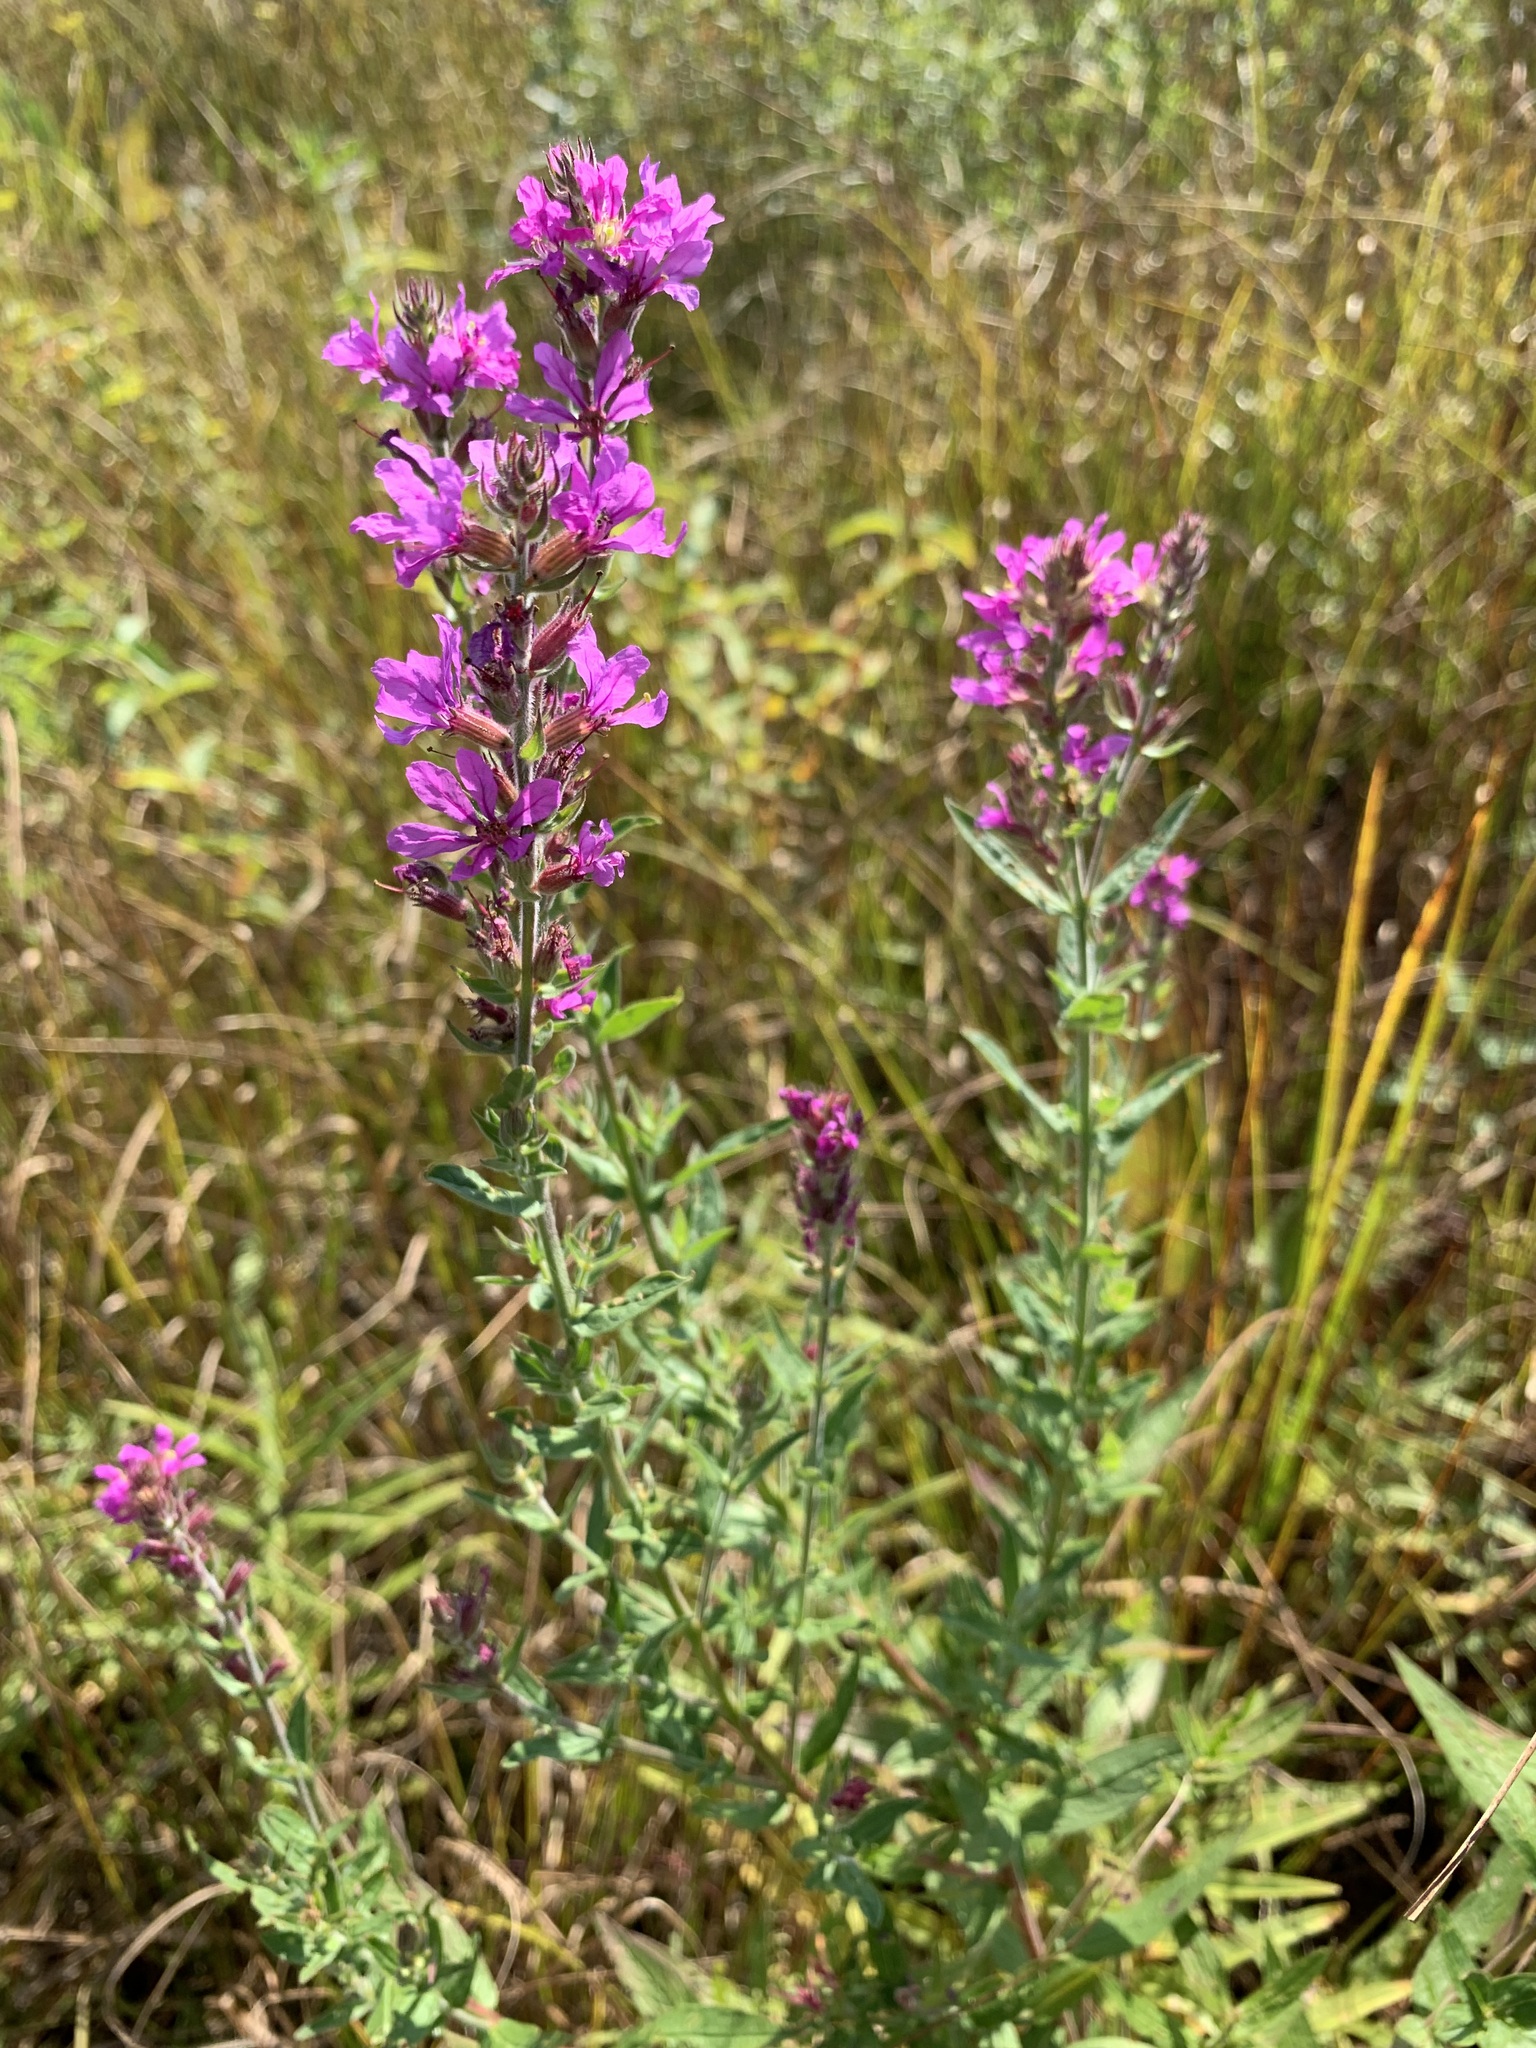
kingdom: Plantae
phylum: Tracheophyta
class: Magnoliopsida
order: Myrtales
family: Lythraceae
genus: Lythrum
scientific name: Lythrum salicaria
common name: Purple loosestrife
